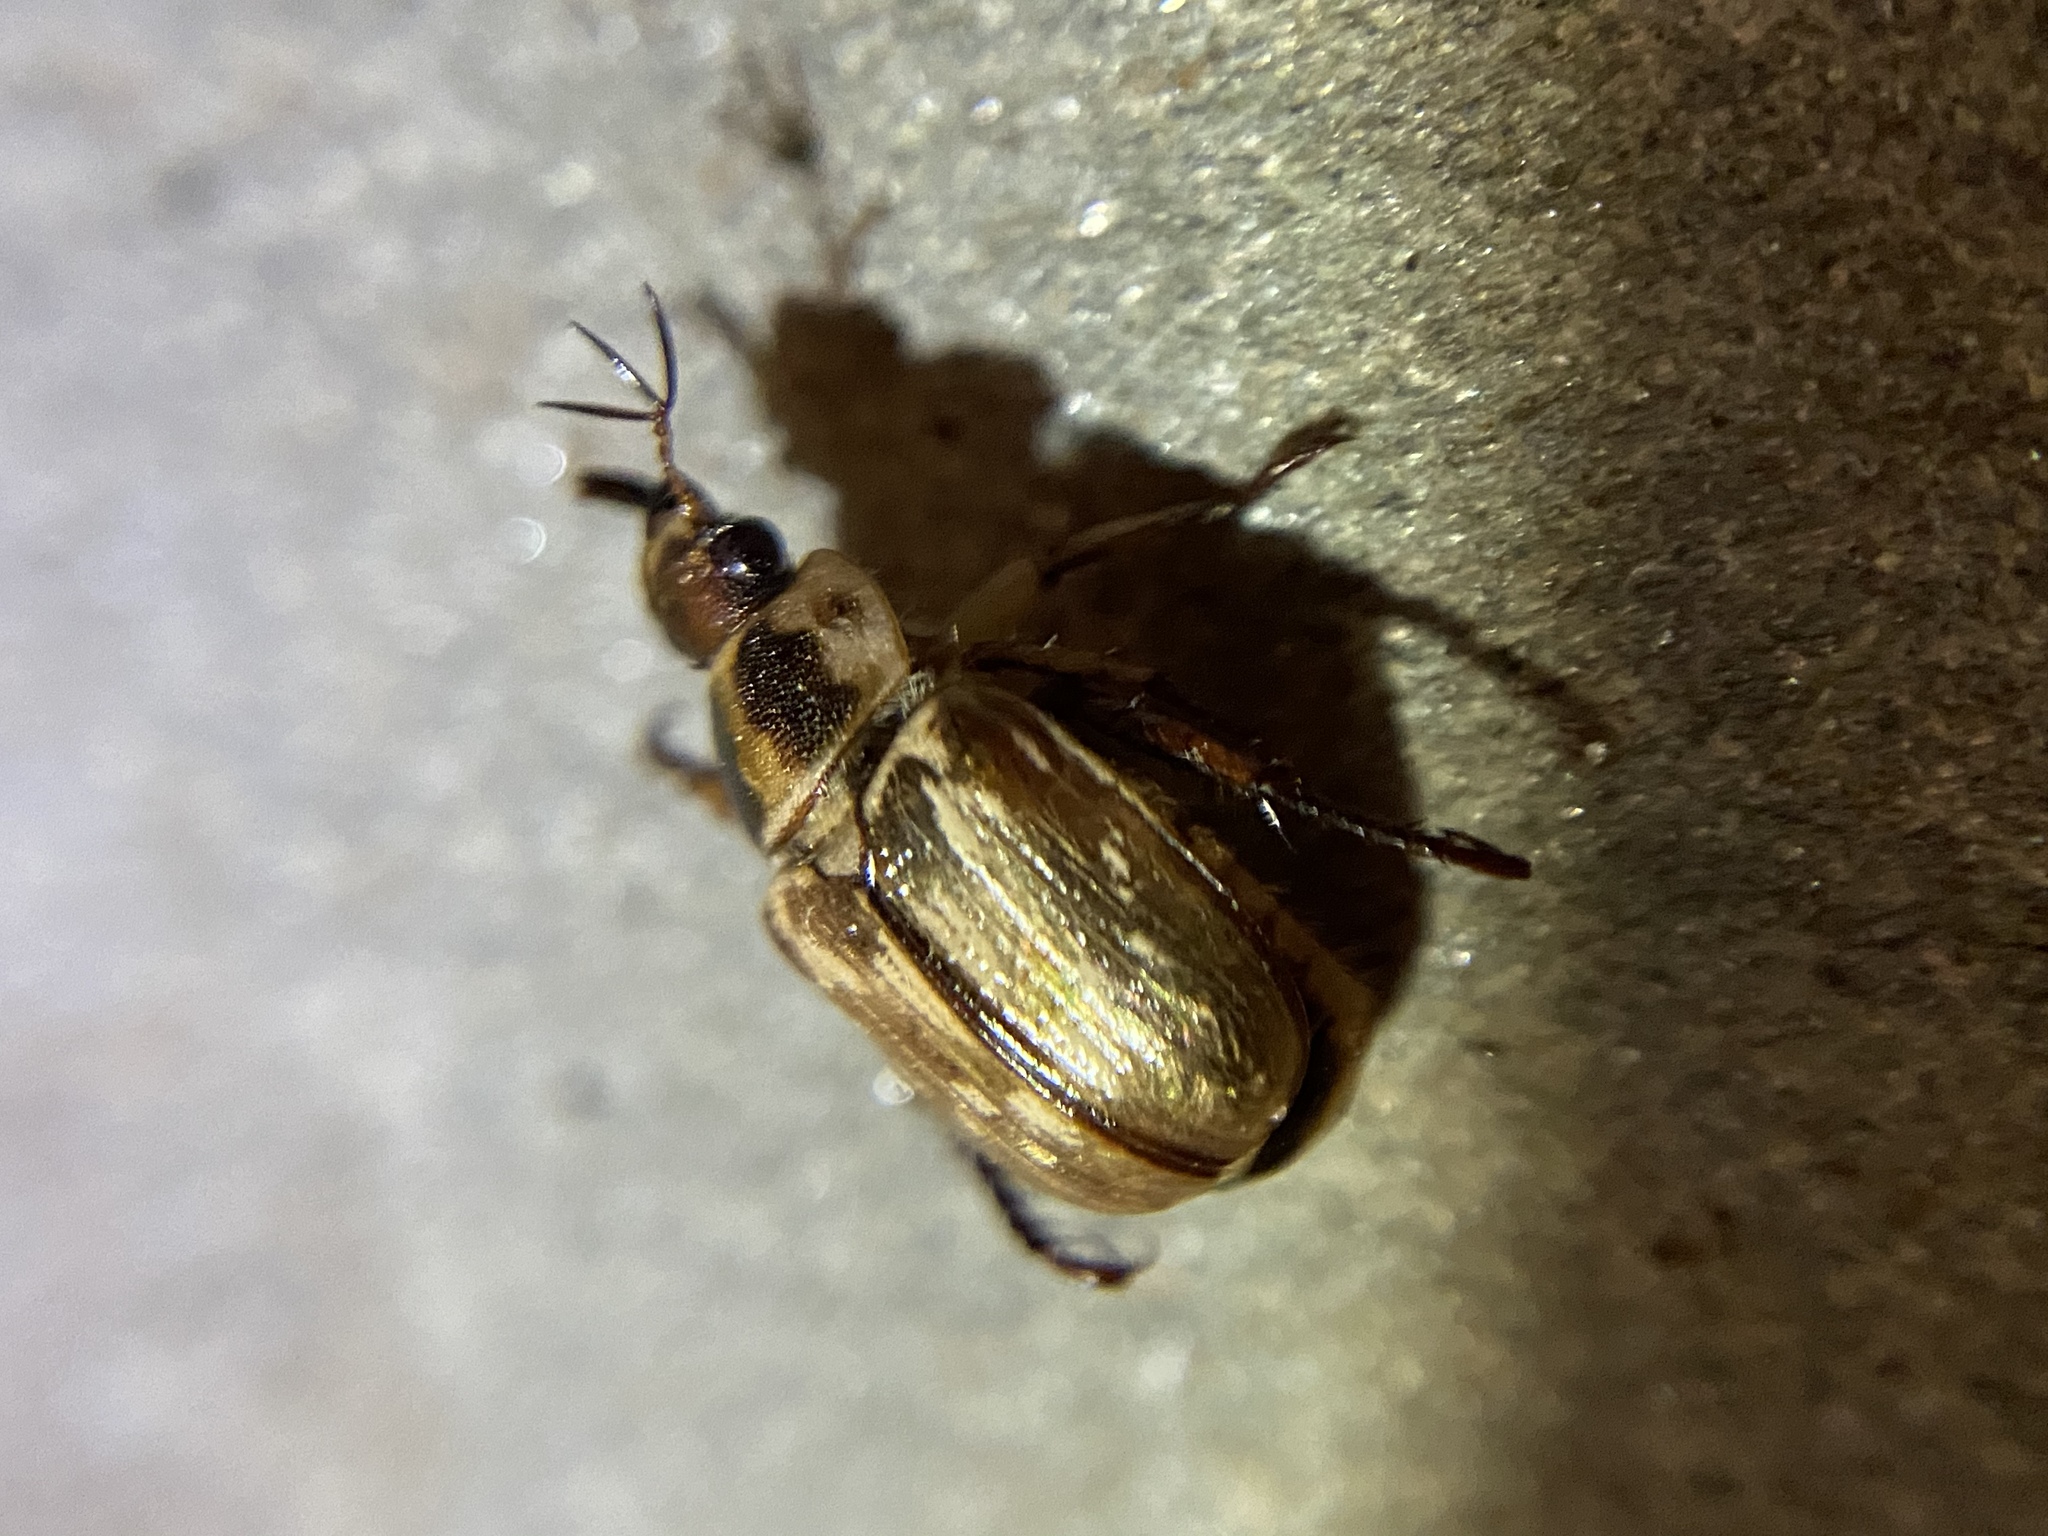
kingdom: Animalia
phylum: Arthropoda
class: Insecta
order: Coleoptera
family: Scarabaeidae
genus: Exomala
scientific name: Exomala orientalis
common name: Oriental beetle
